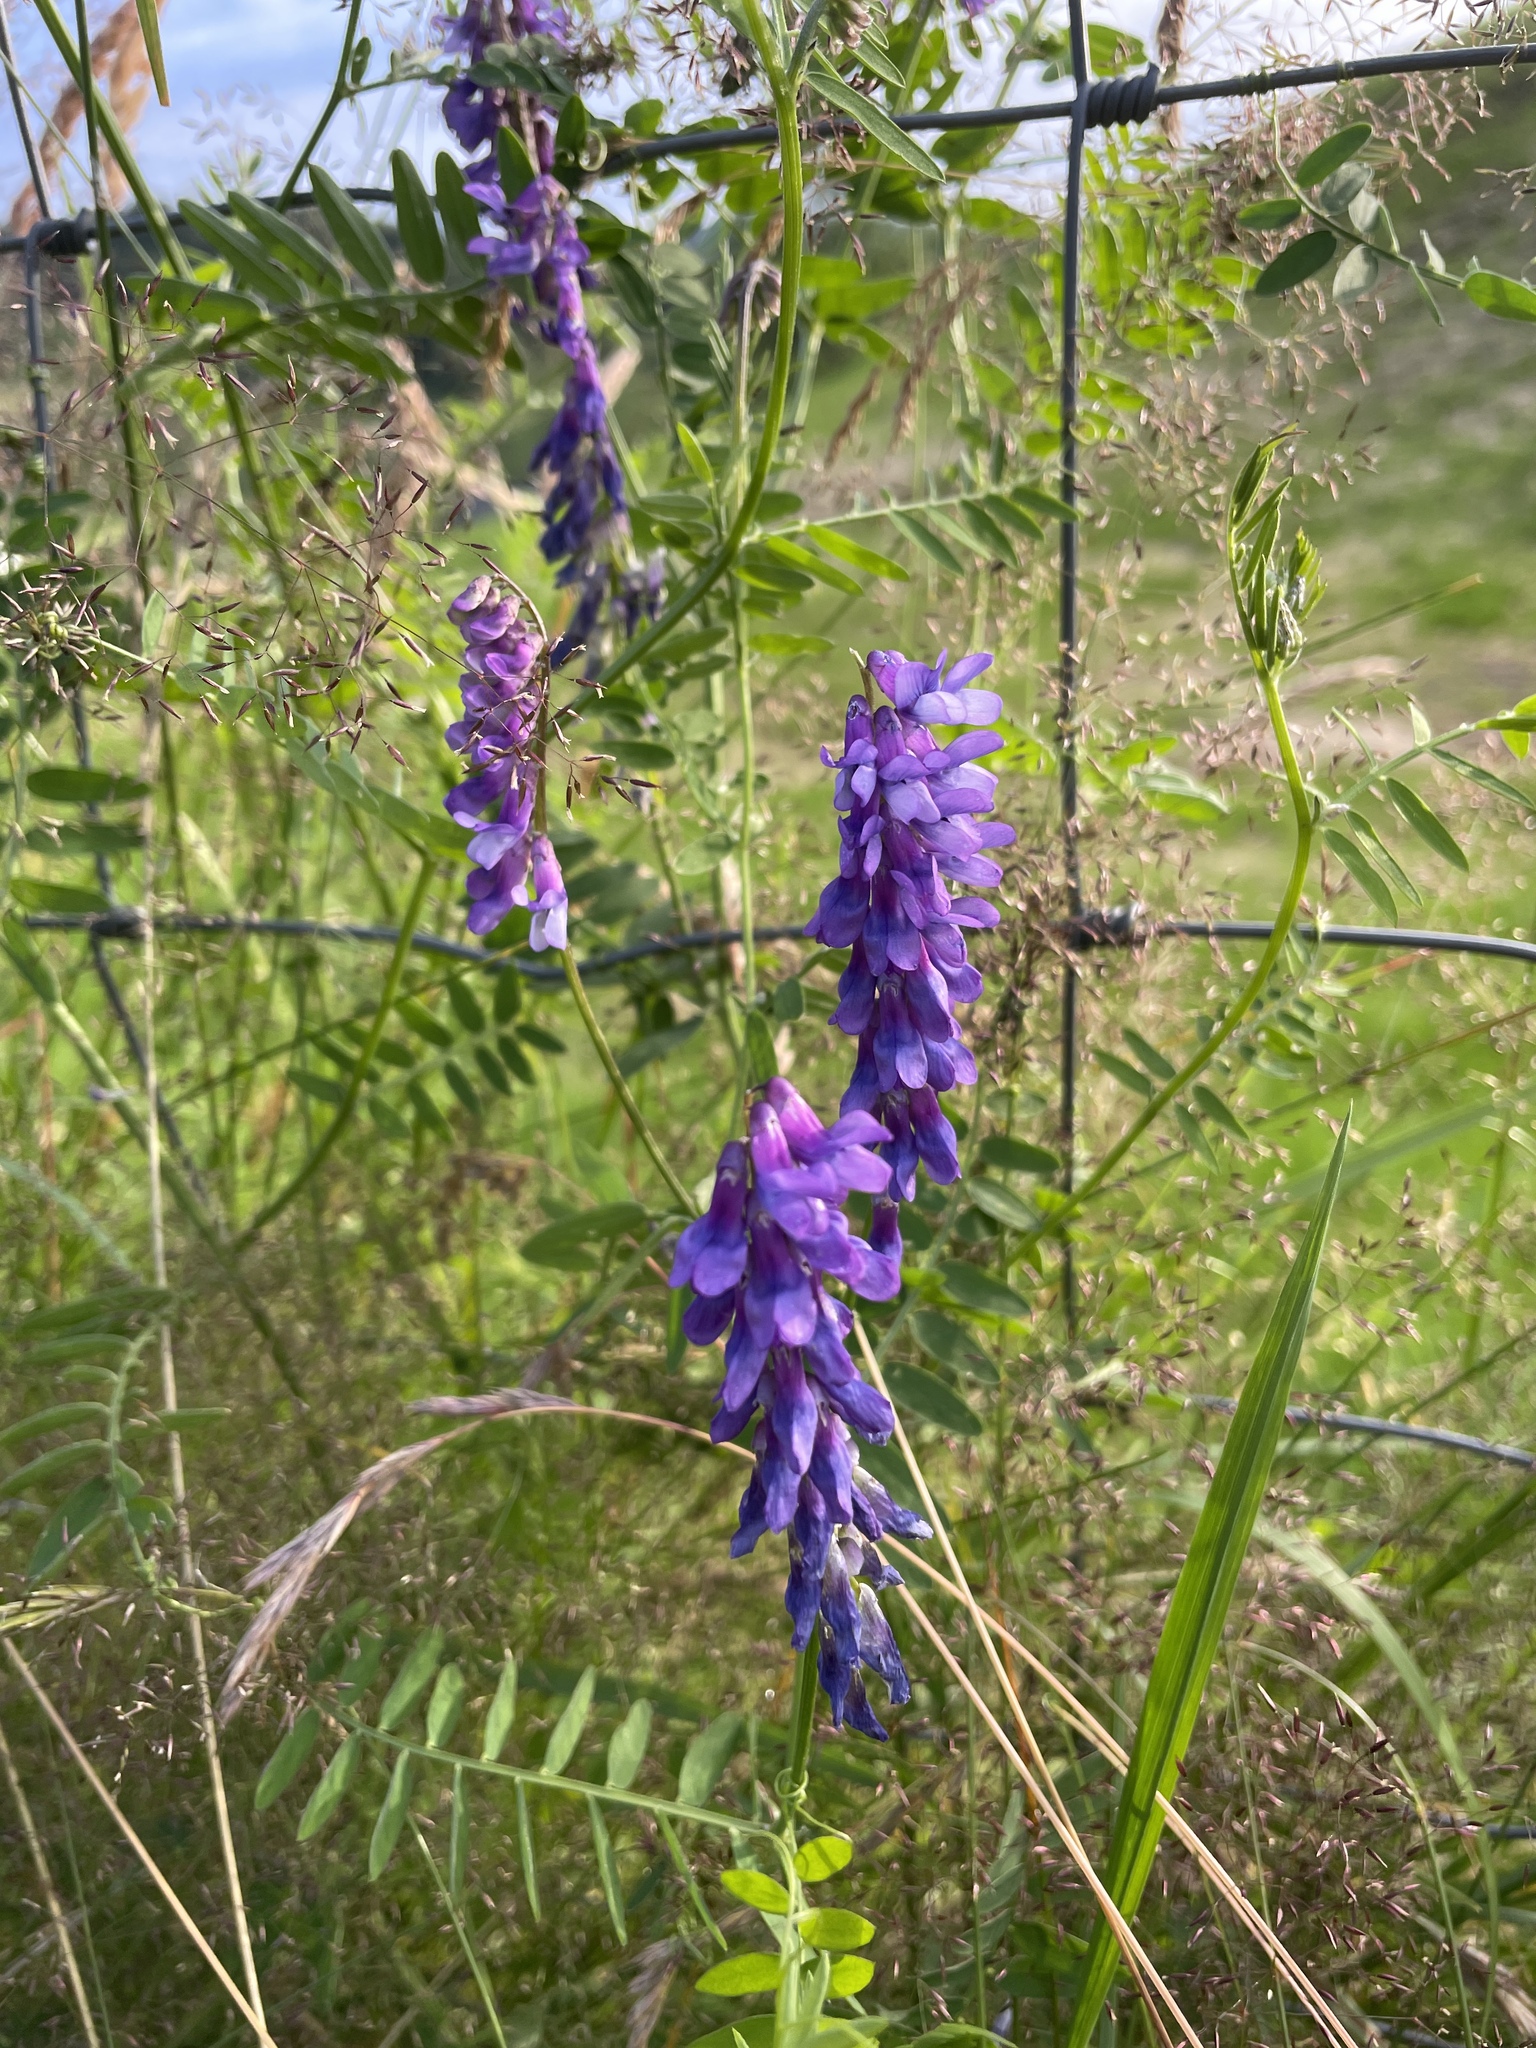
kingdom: Plantae
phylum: Tracheophyta
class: Magnoliopsida
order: Fabales
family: Fabaceae
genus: Vicia
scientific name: Vicia cracca
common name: Bird vetch
